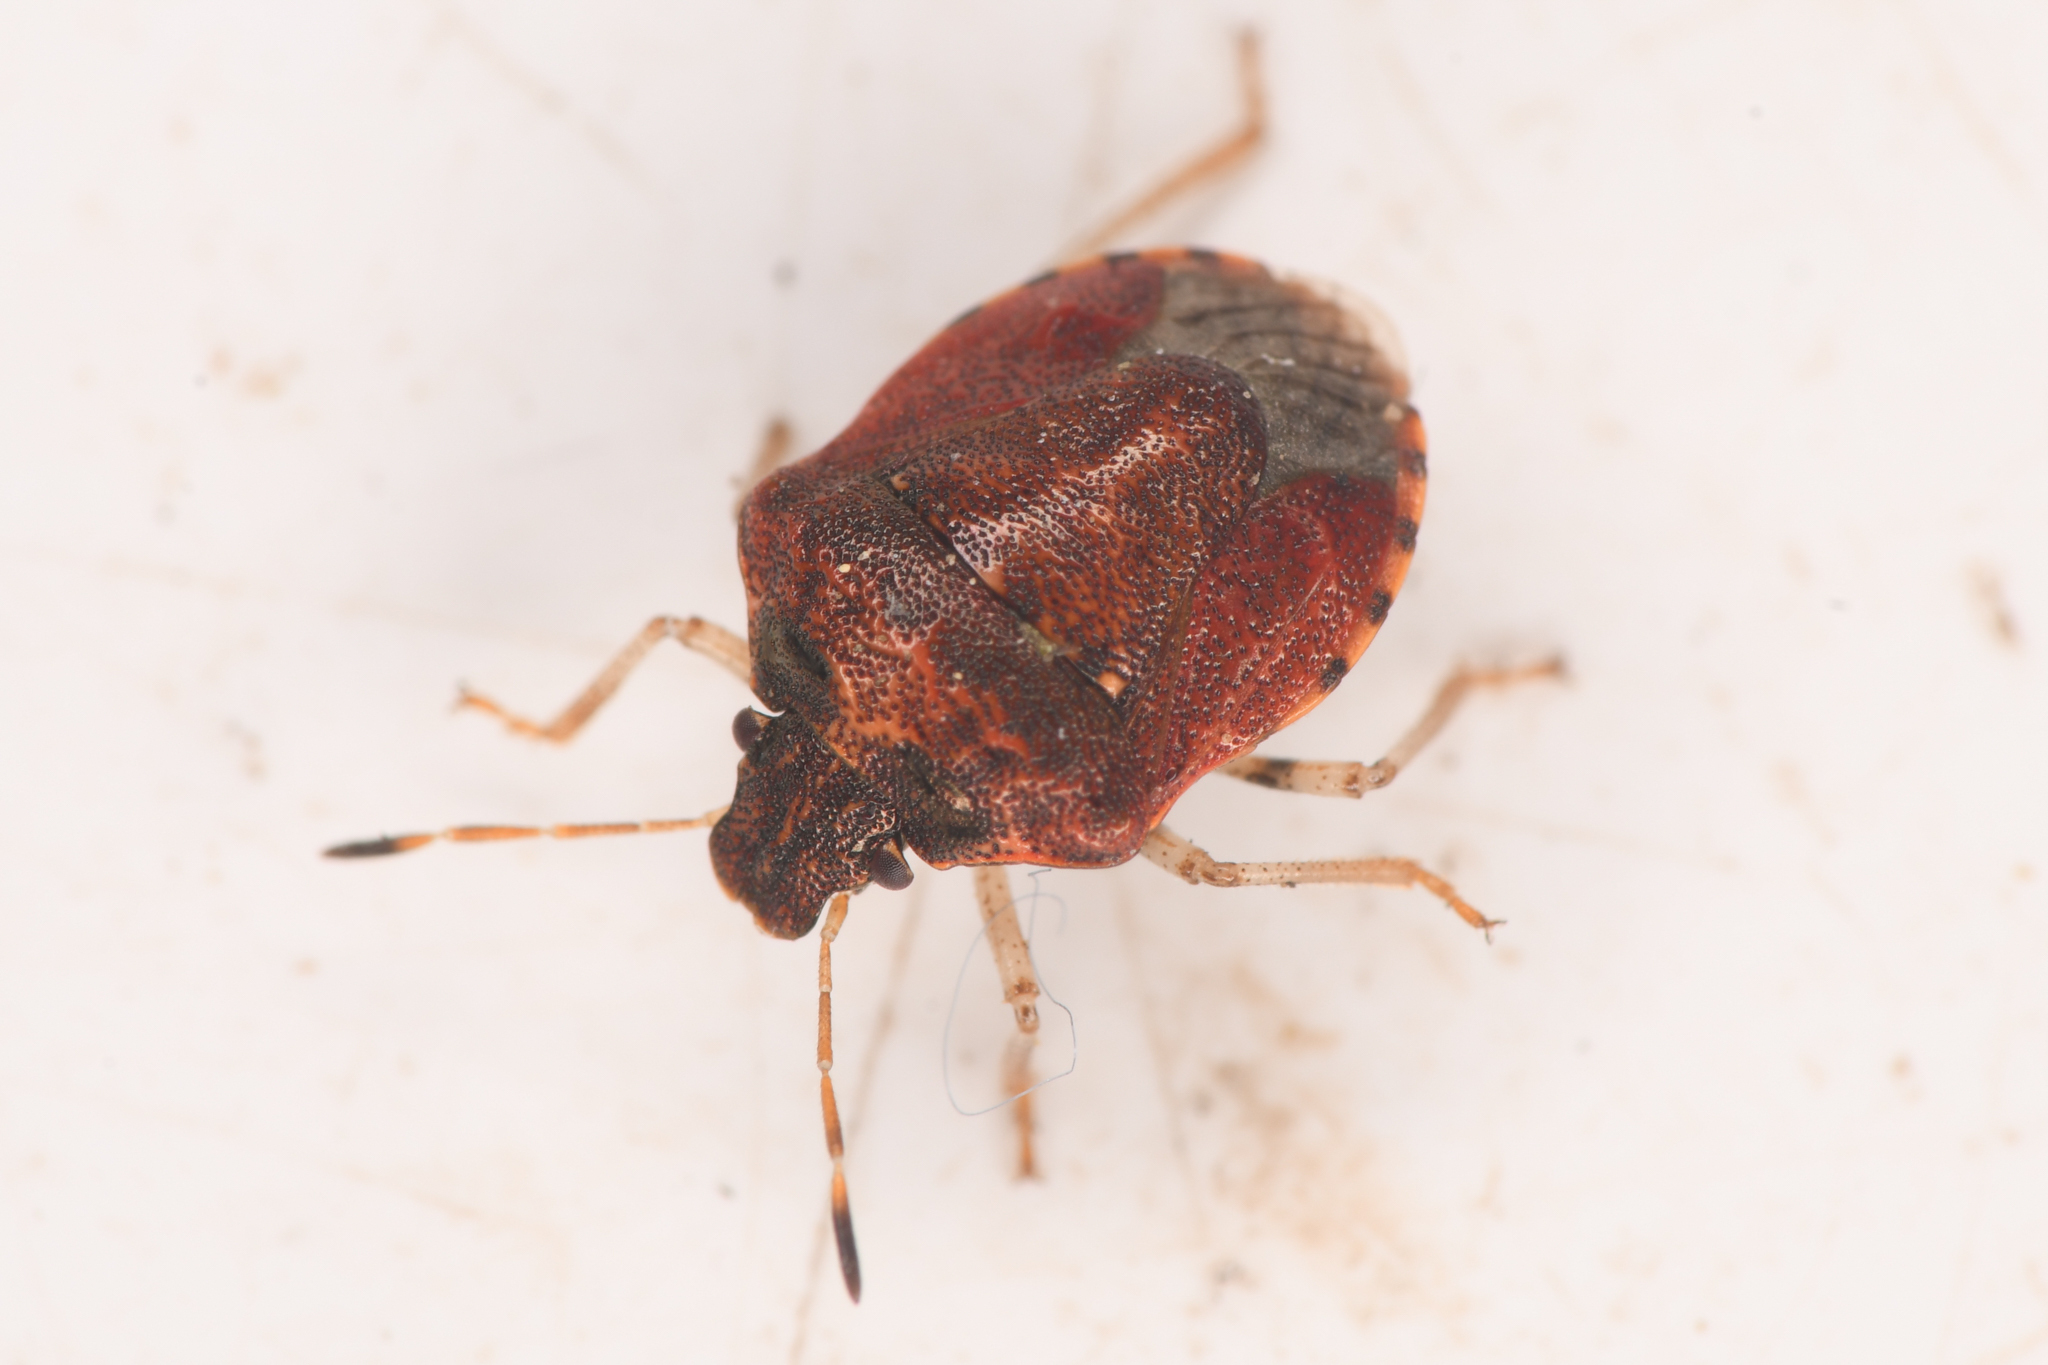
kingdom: Animalia
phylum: Arthropoda
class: Insecta
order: Hemiptera
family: Pentatomidae
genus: Cosmopepla
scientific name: Cosmopepla intergressus
